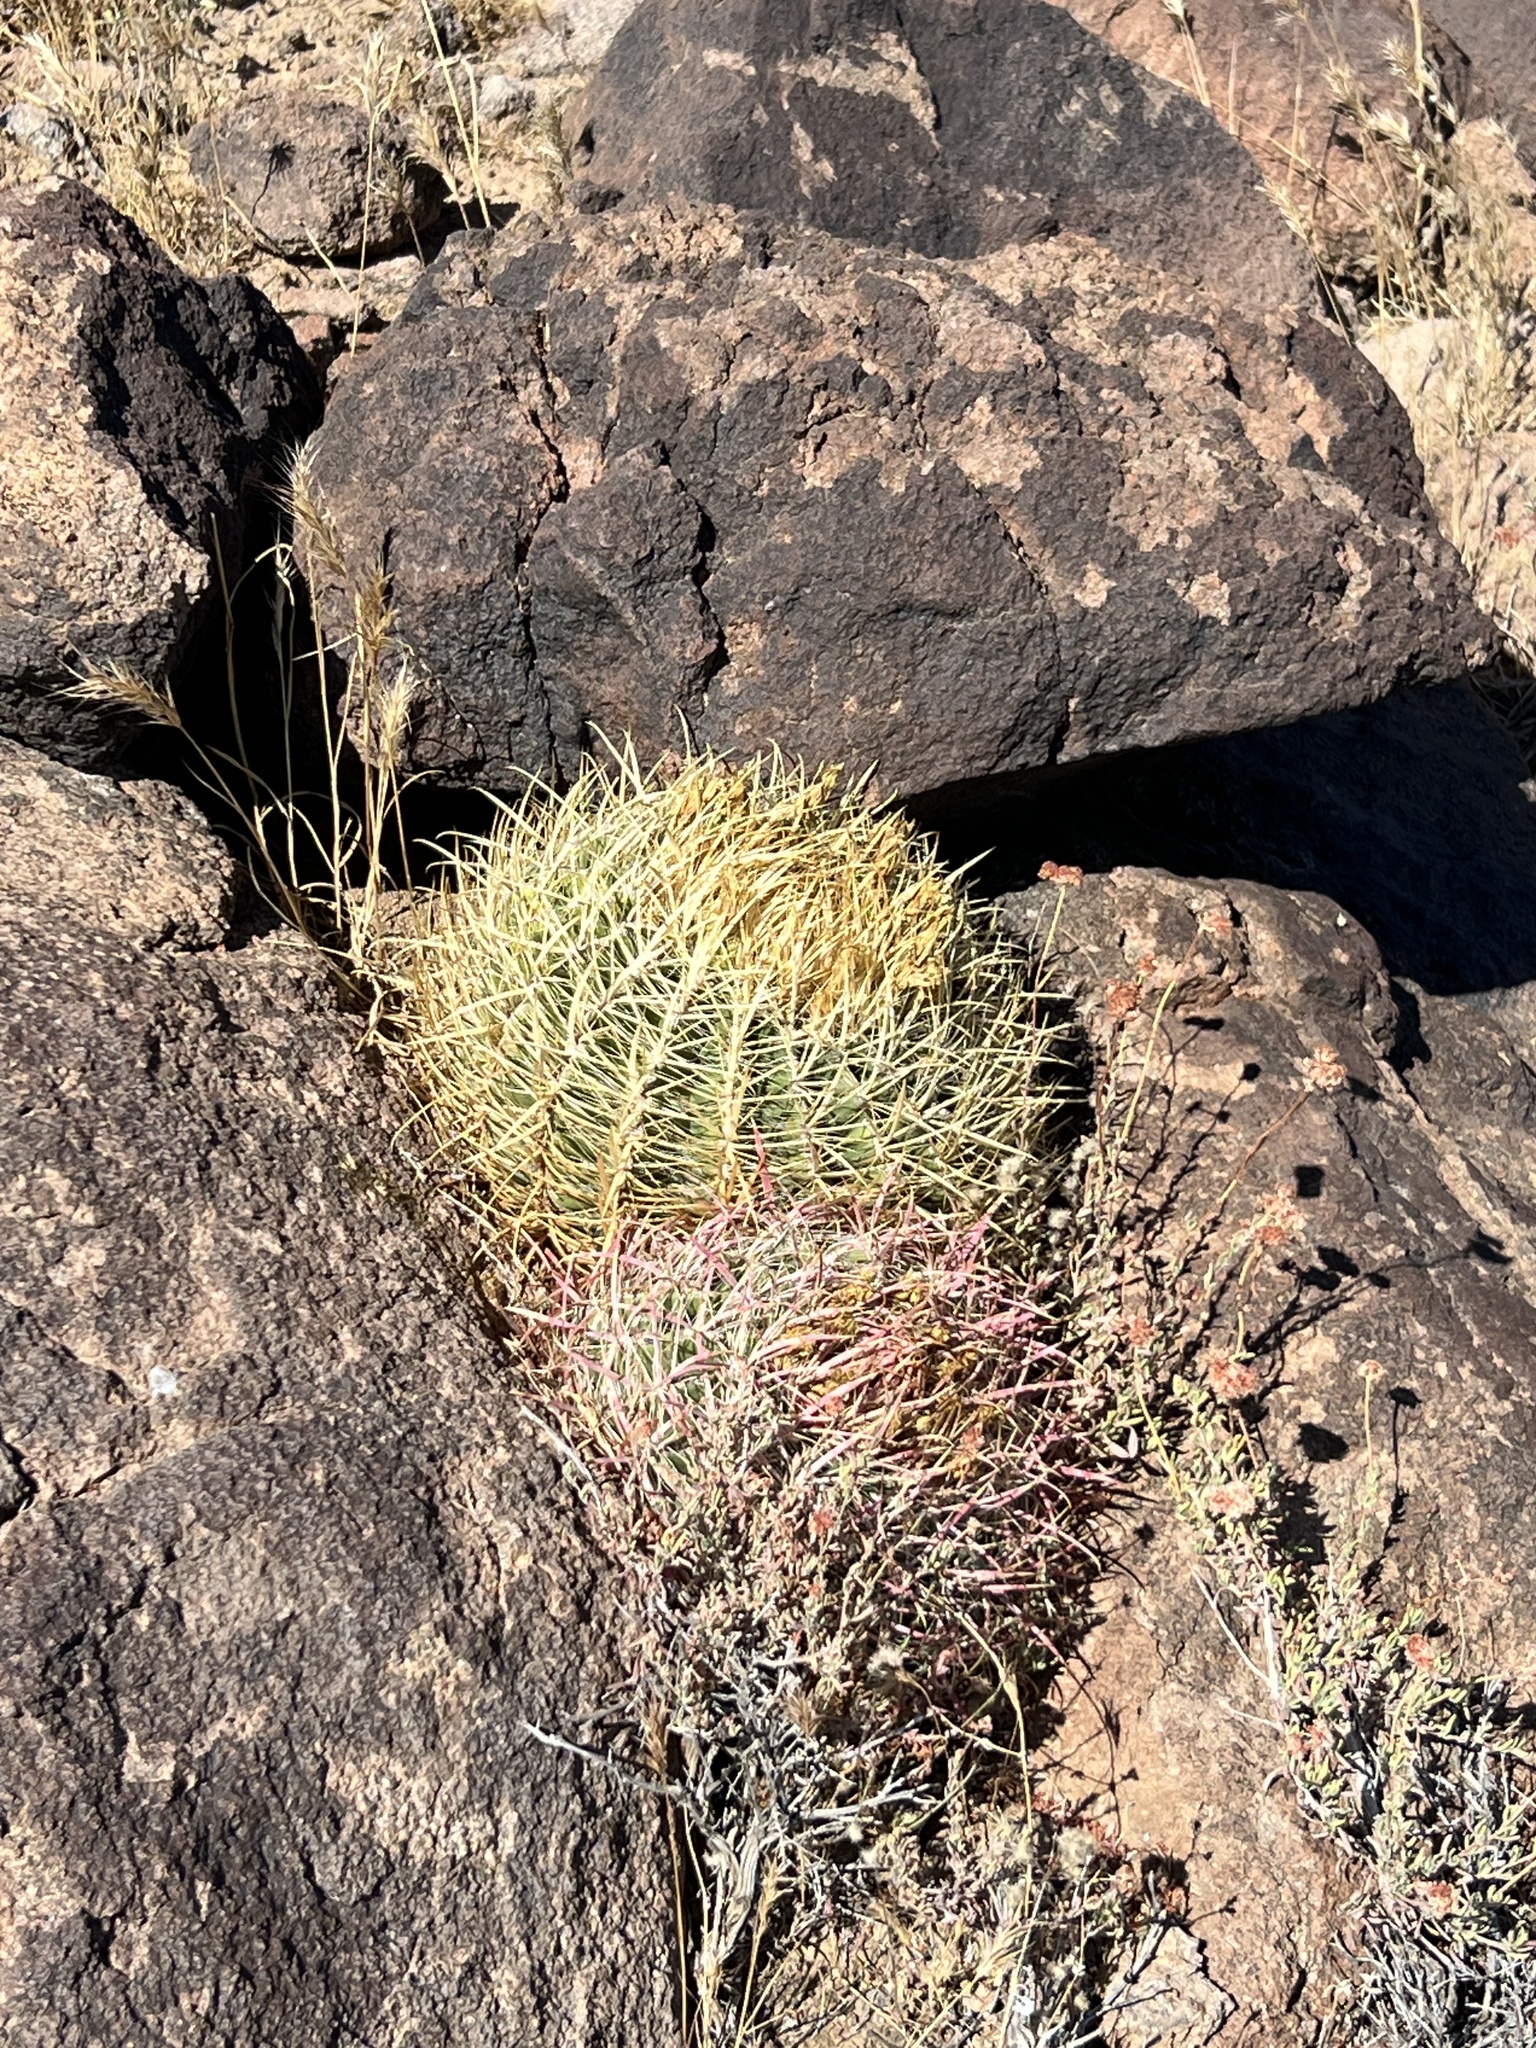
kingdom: Plantae
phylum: Tracheophyta
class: Magnoliopsida
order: Caryophyllales
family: Cactaceae
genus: Ferocactus
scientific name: Ferocactus cylindraceus
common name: California barrel cactus
